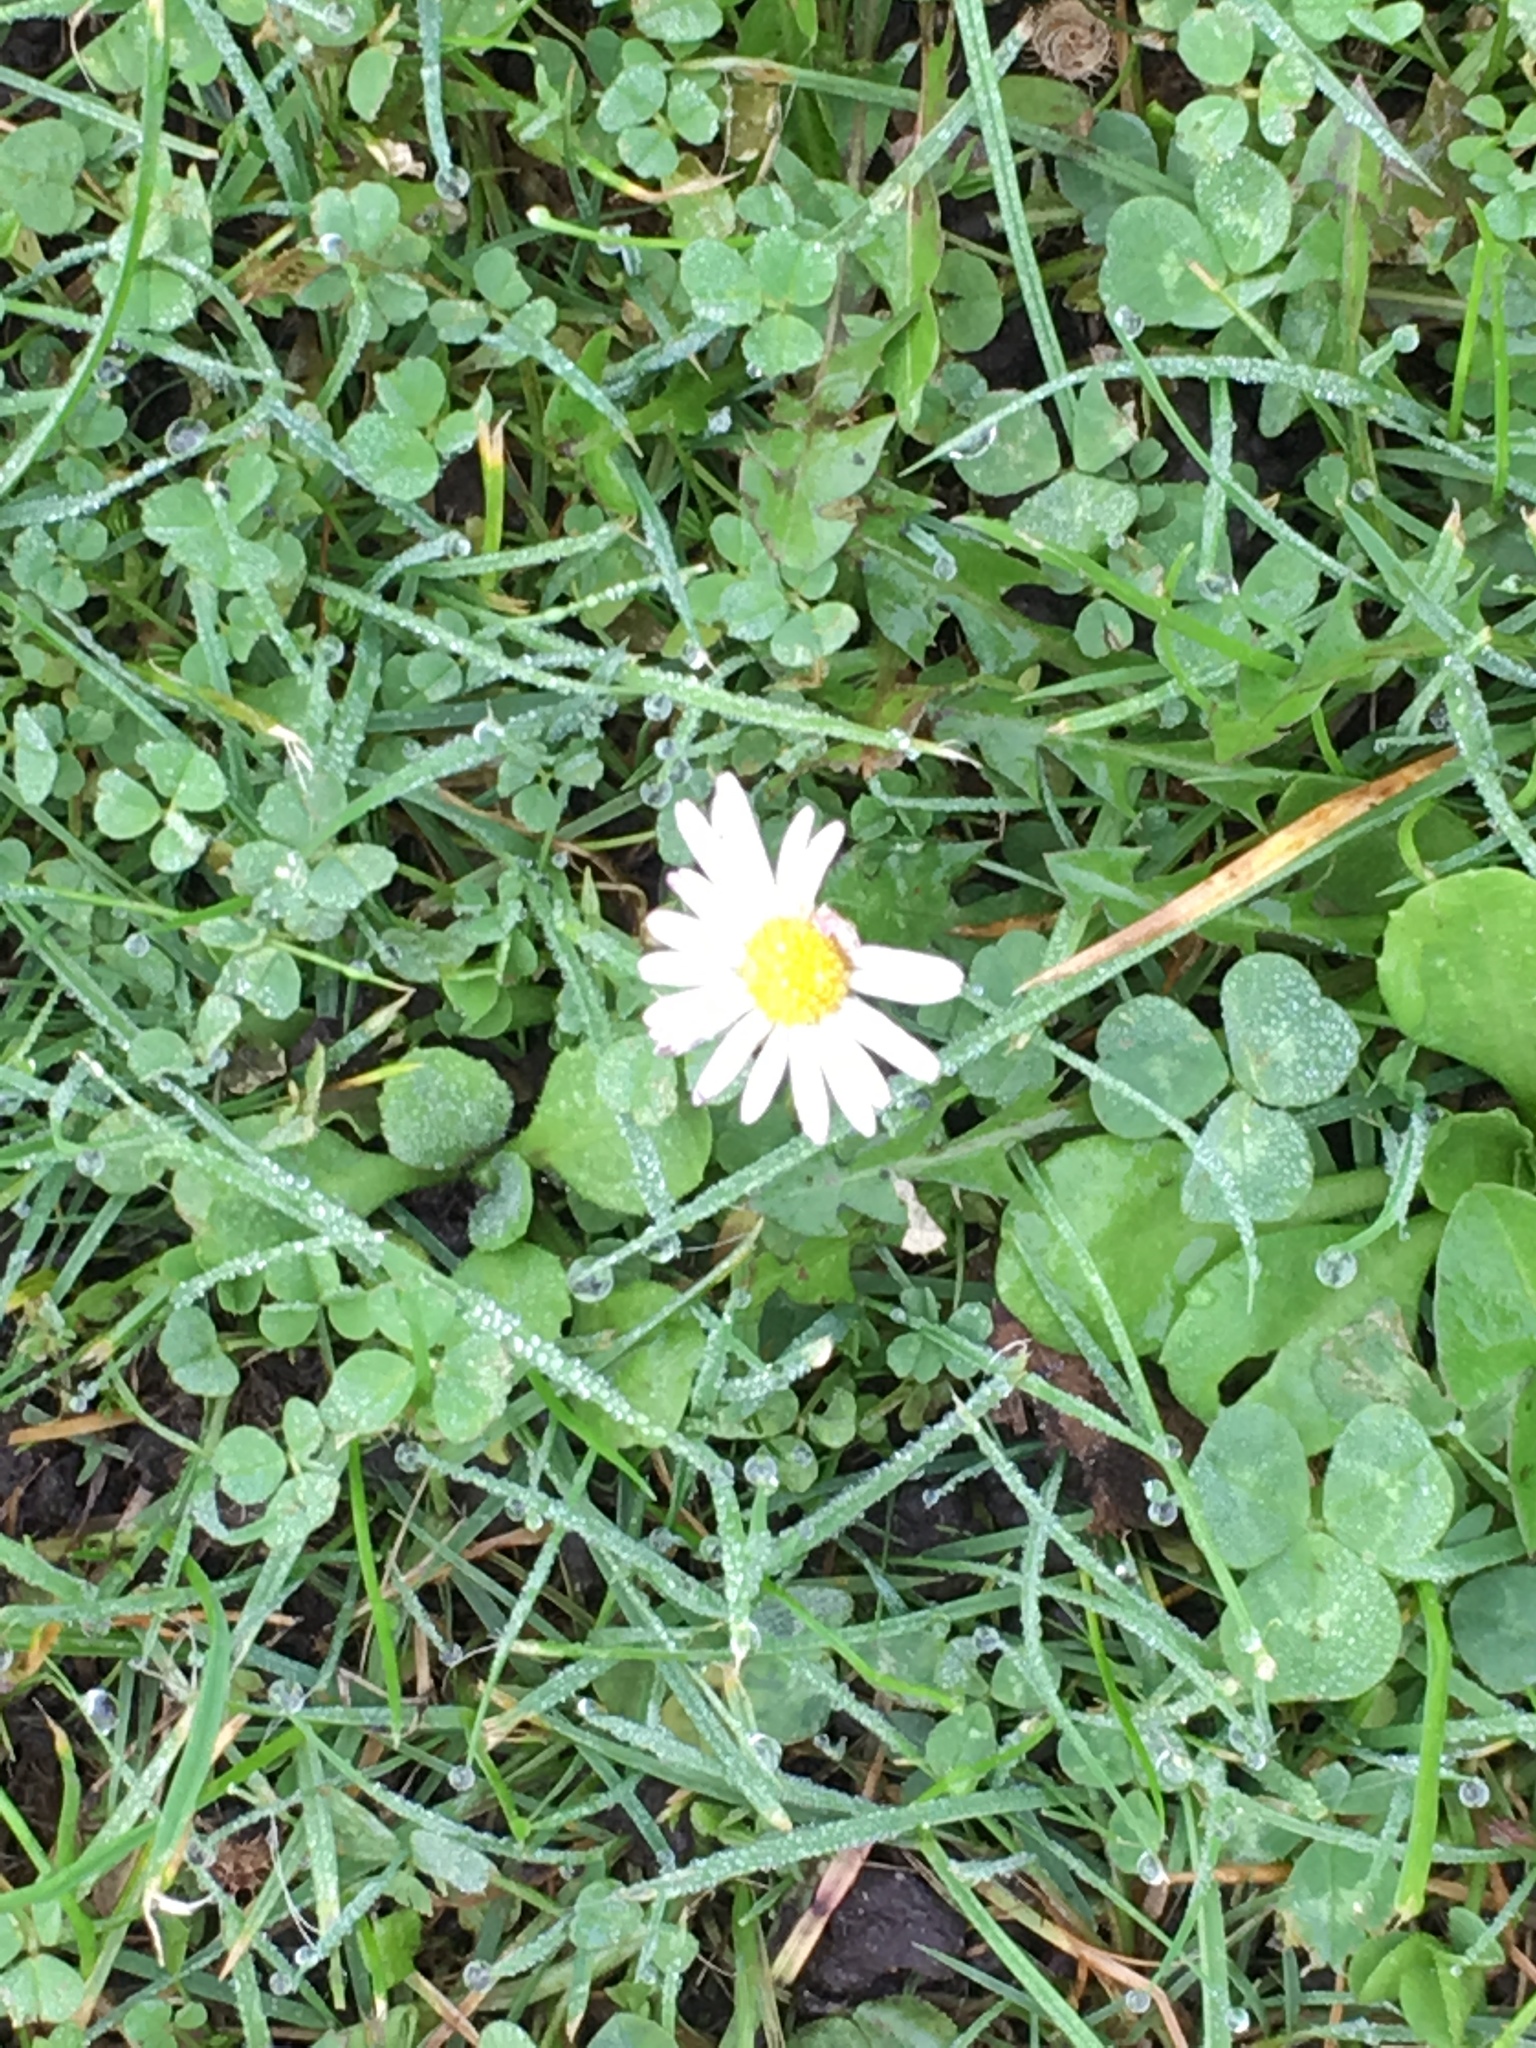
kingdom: Plantae
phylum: Tracheophyta
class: Magnoliopsida
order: Asterales
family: Asteraceae
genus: Bellis
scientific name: Bellis perennis
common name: Lawndaisy
